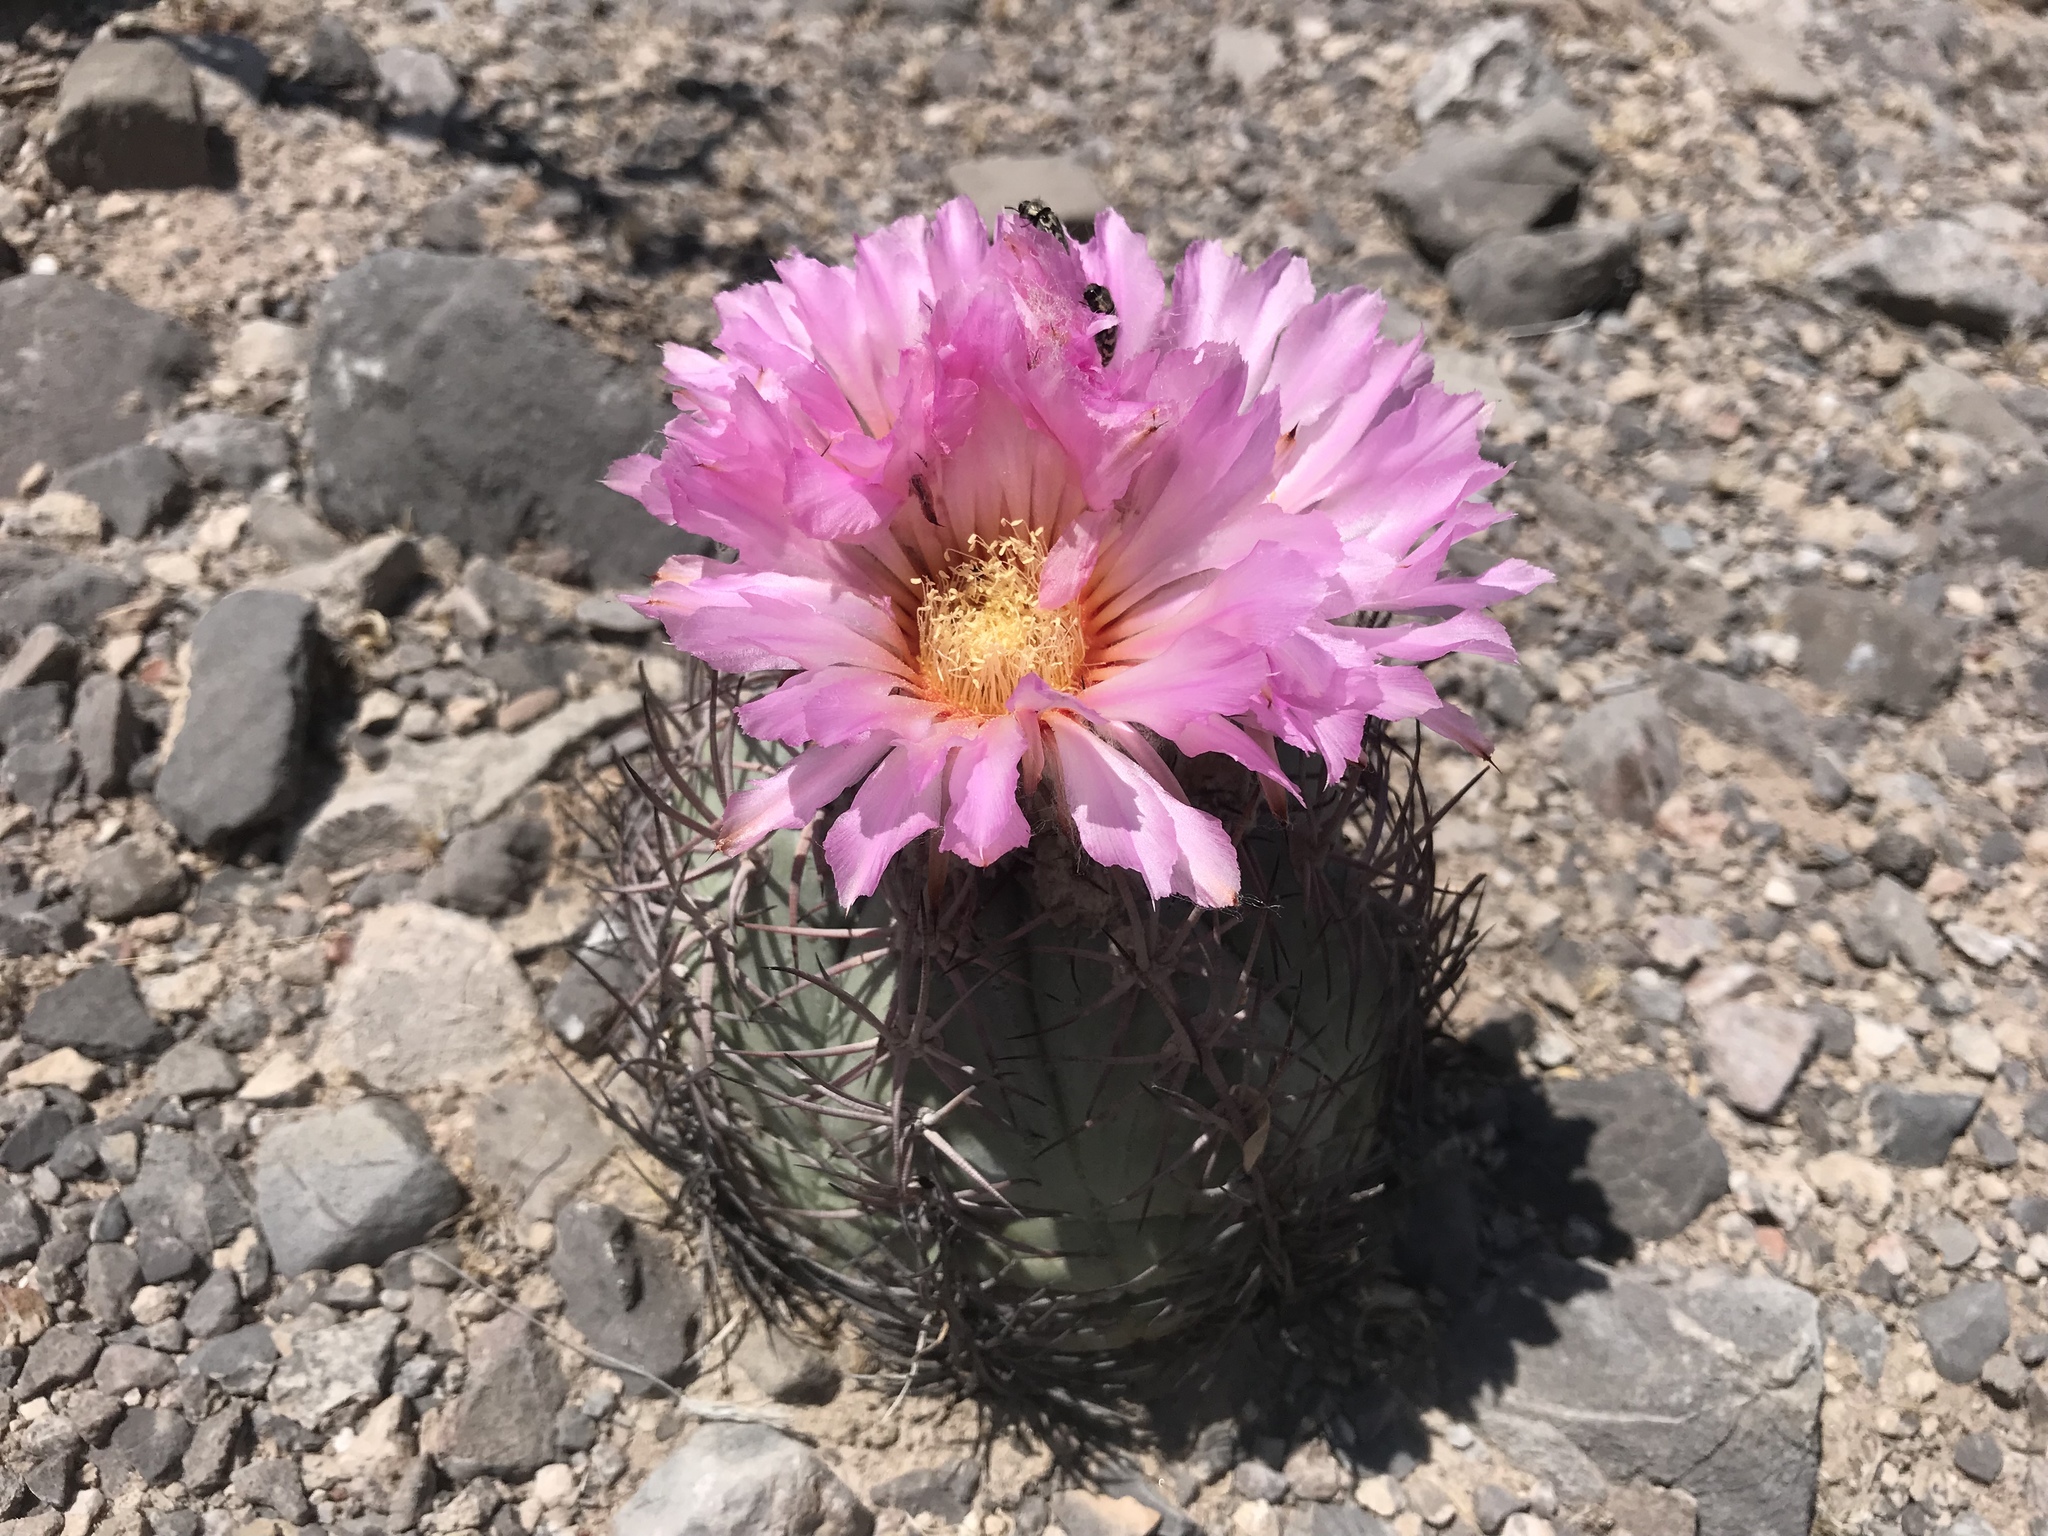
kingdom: Plantae
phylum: Tracheophyta
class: Magnoliopsida
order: Caryophyllales
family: Cactaceae
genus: Echinocactus
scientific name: Echinocactus horizonthalonius
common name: Devilshead
